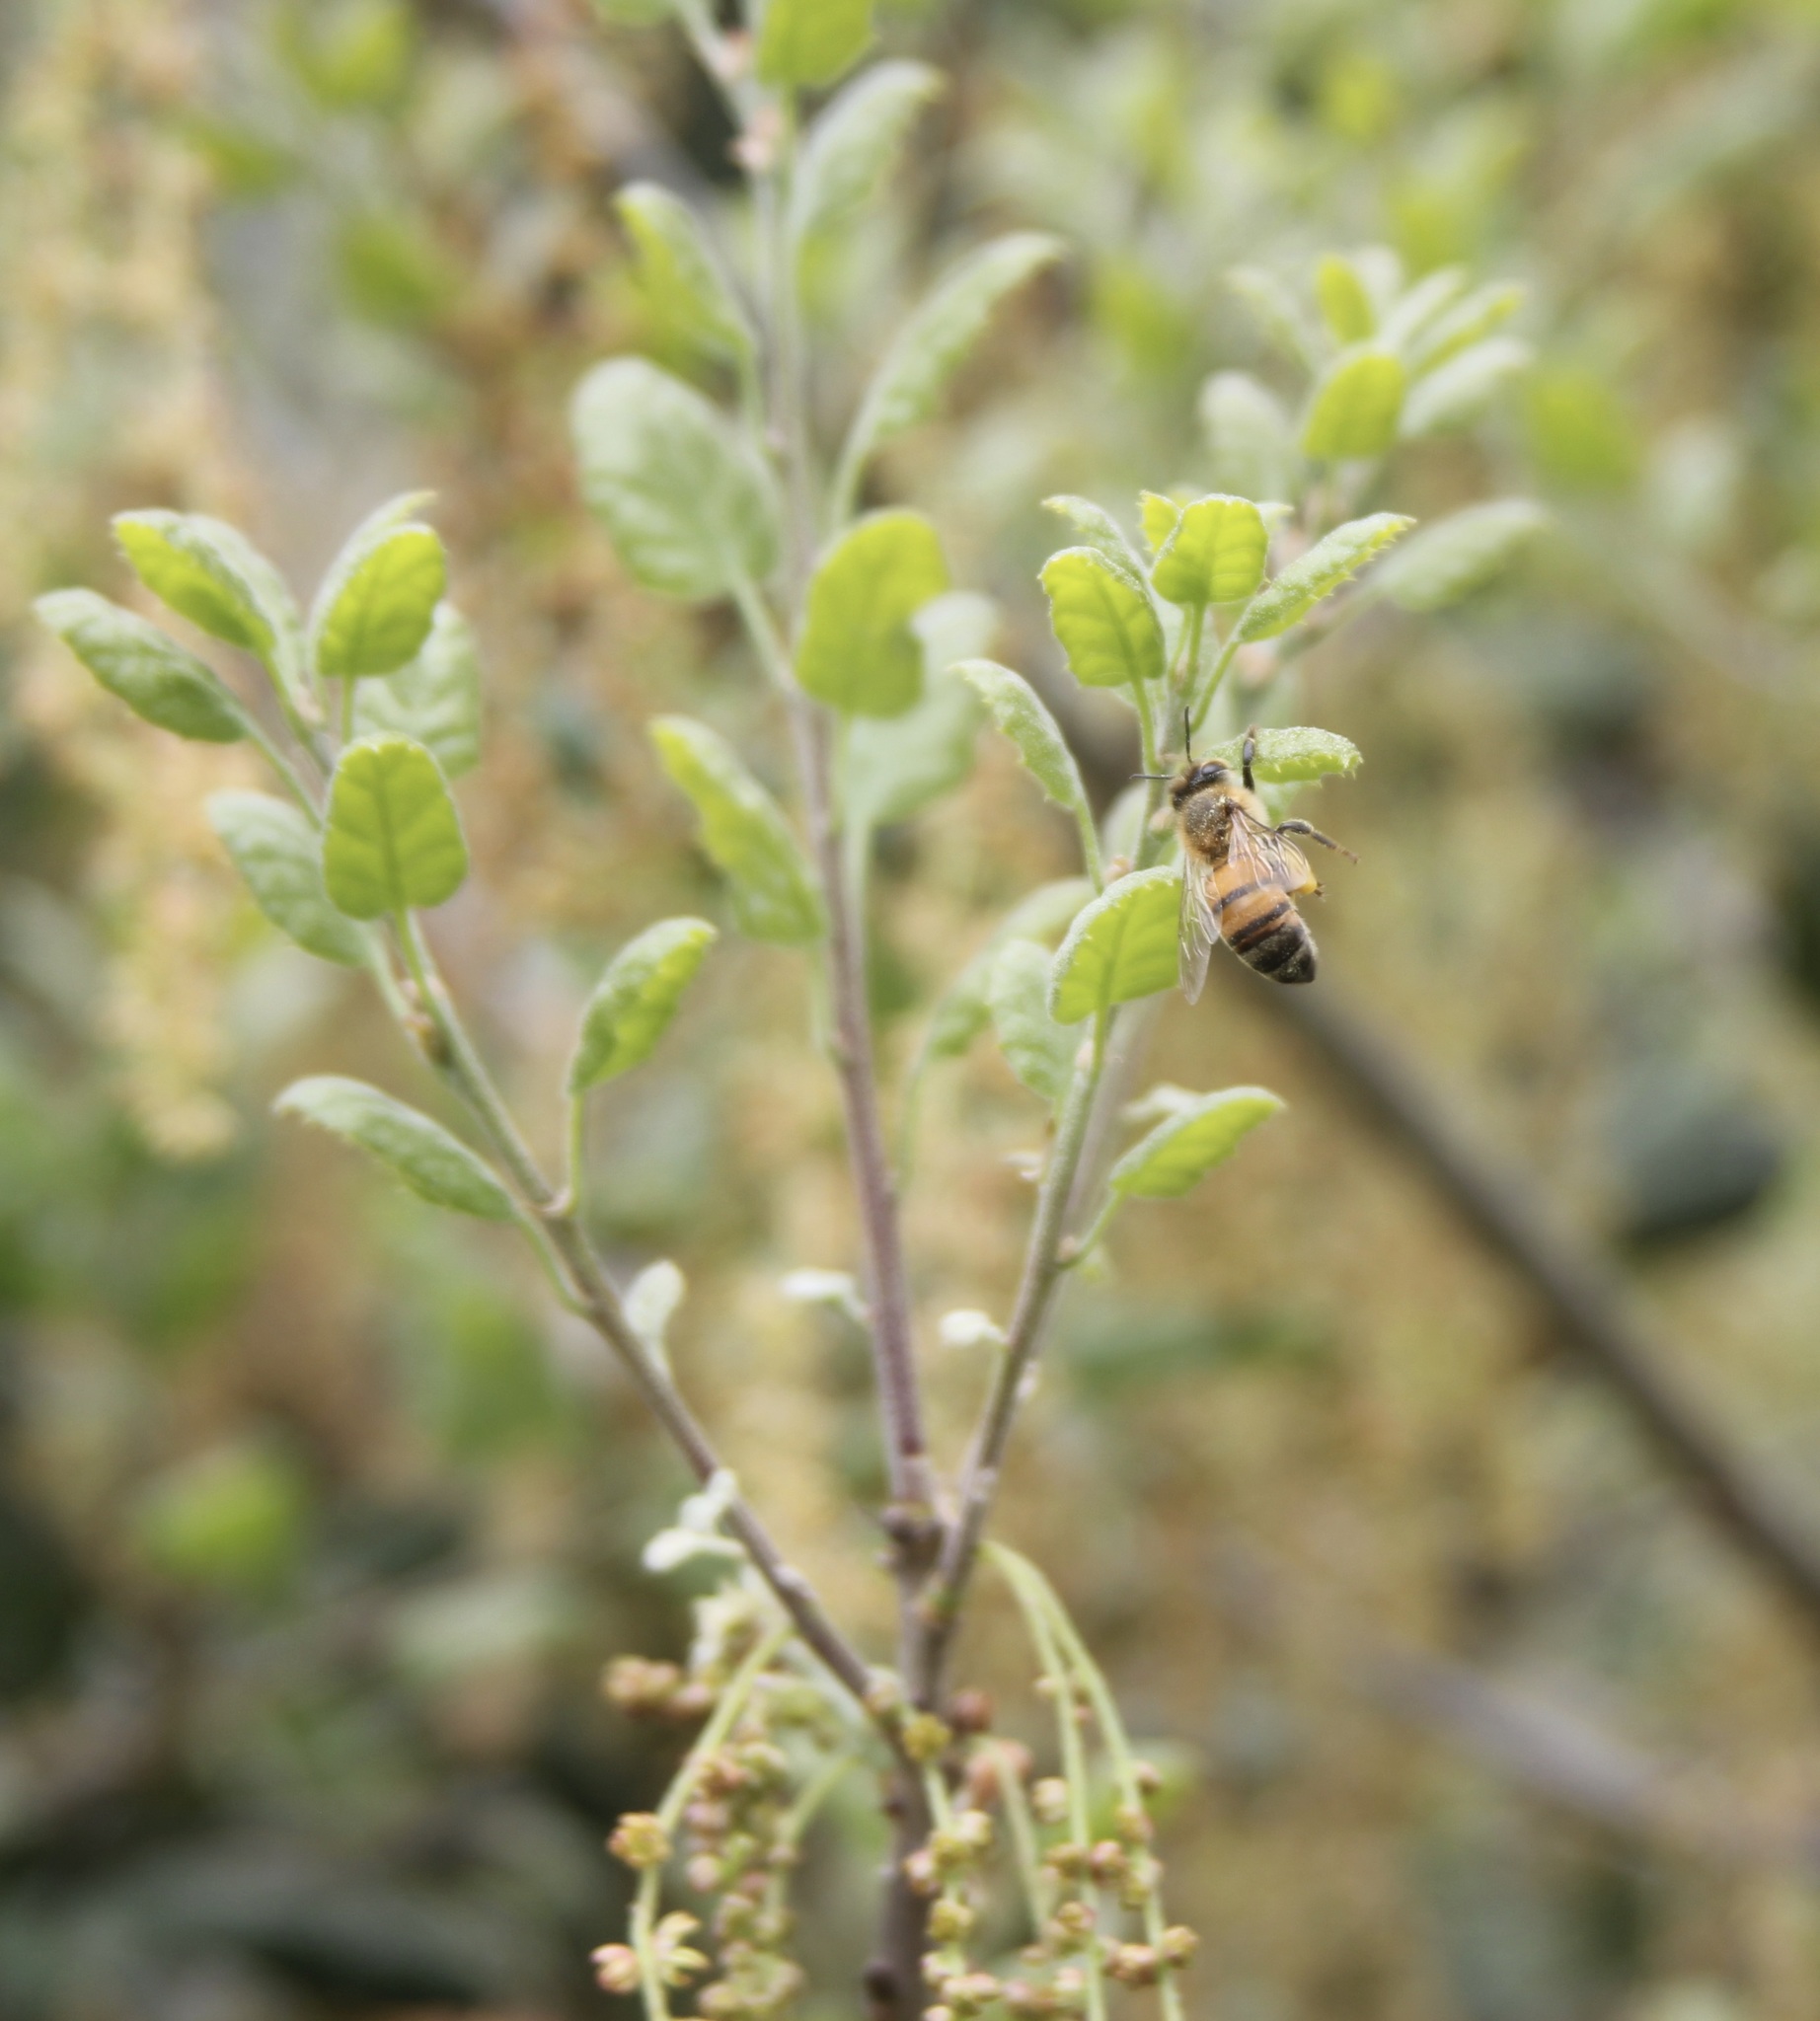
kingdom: Animalia
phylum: Arthropoda
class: Insecta
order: Hymenoptera
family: Apidae
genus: Apis
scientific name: Apis mellifera
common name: Honey bee
